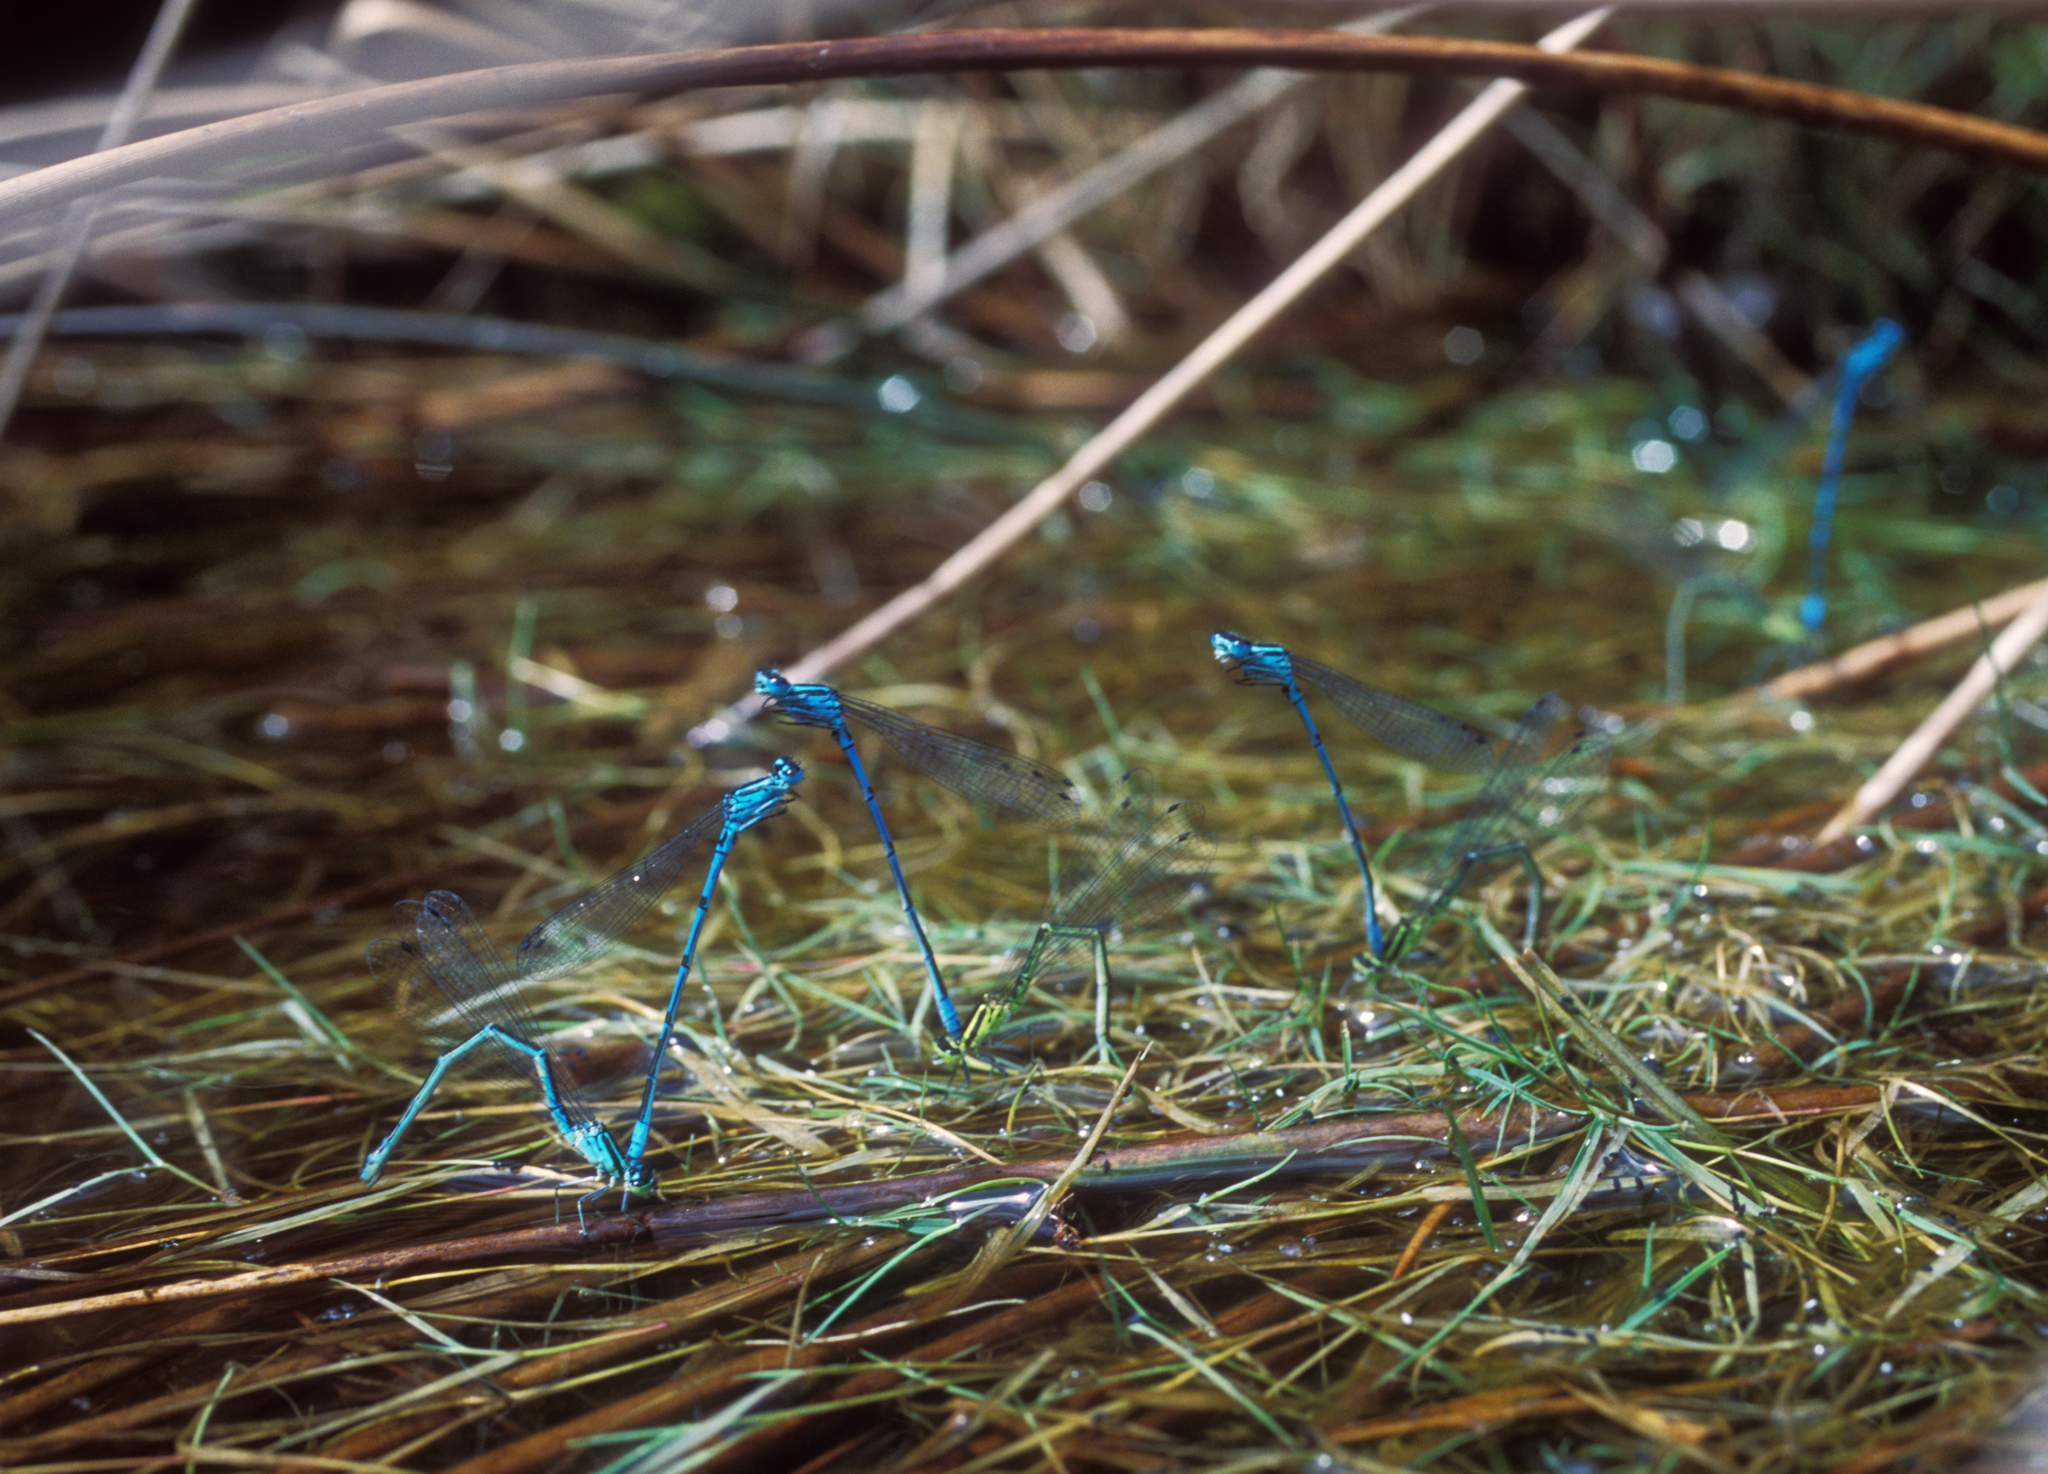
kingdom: Animalia
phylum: Arthropoda
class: Insecta
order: Odonata
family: Coenagrionidae
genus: Coenagrion
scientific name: Coenagrion puella
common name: Azure damselfly
